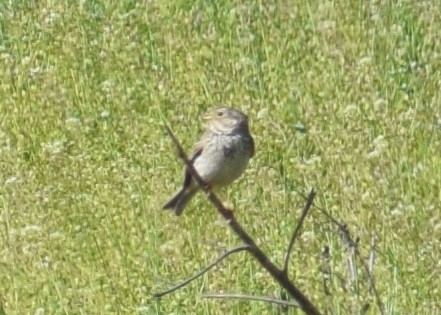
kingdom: Animalia
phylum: Chordata
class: Aves
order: Passeriformes
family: Emberizidae
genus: Emberiza
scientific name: Emberiza calandra
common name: Corn bunting
